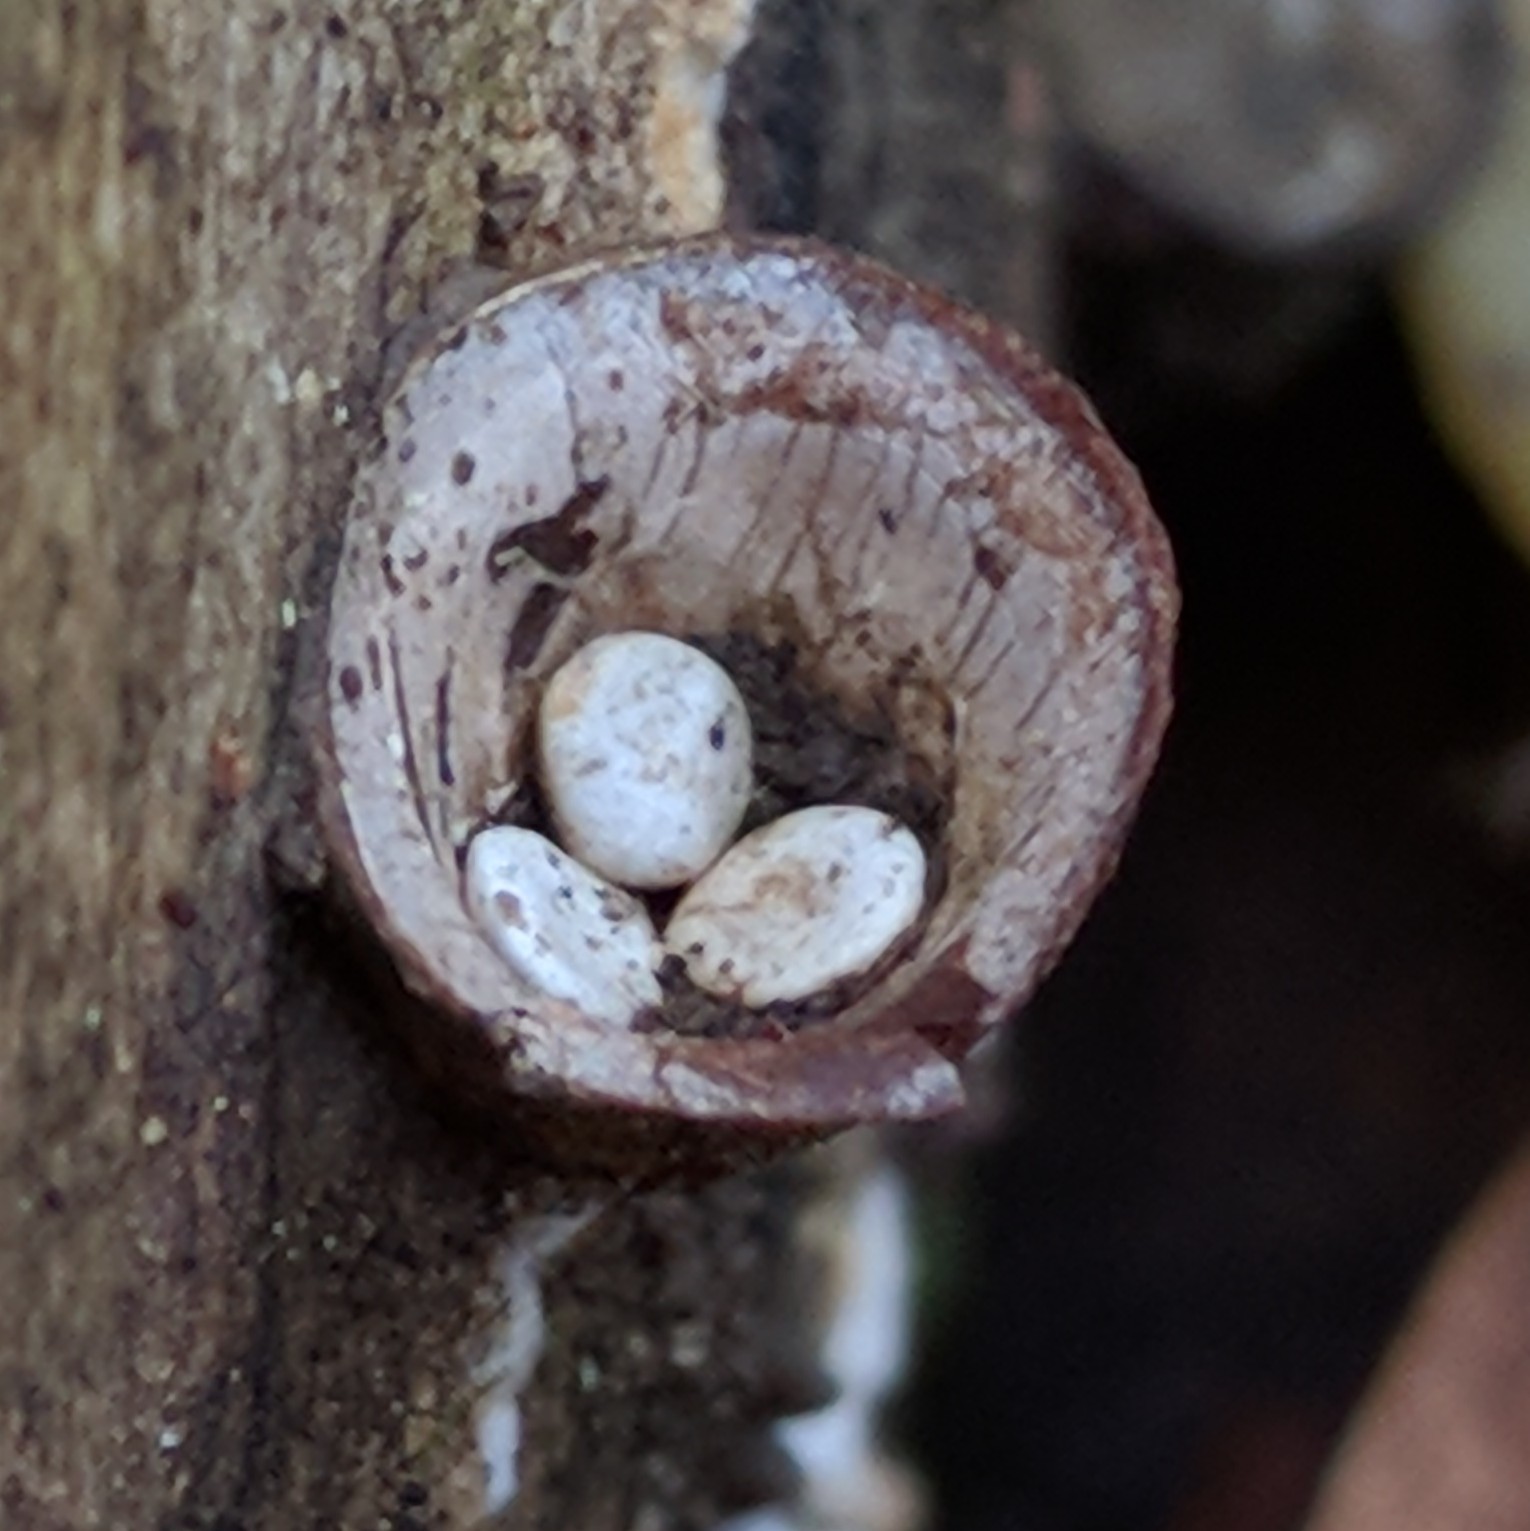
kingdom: Fungi
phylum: Basidiomycota
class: Agaricomycetes
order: Agaricales
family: Nidulariaceae
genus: Crucibulum
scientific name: Crucibulum laeve
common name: Common bird's nest
